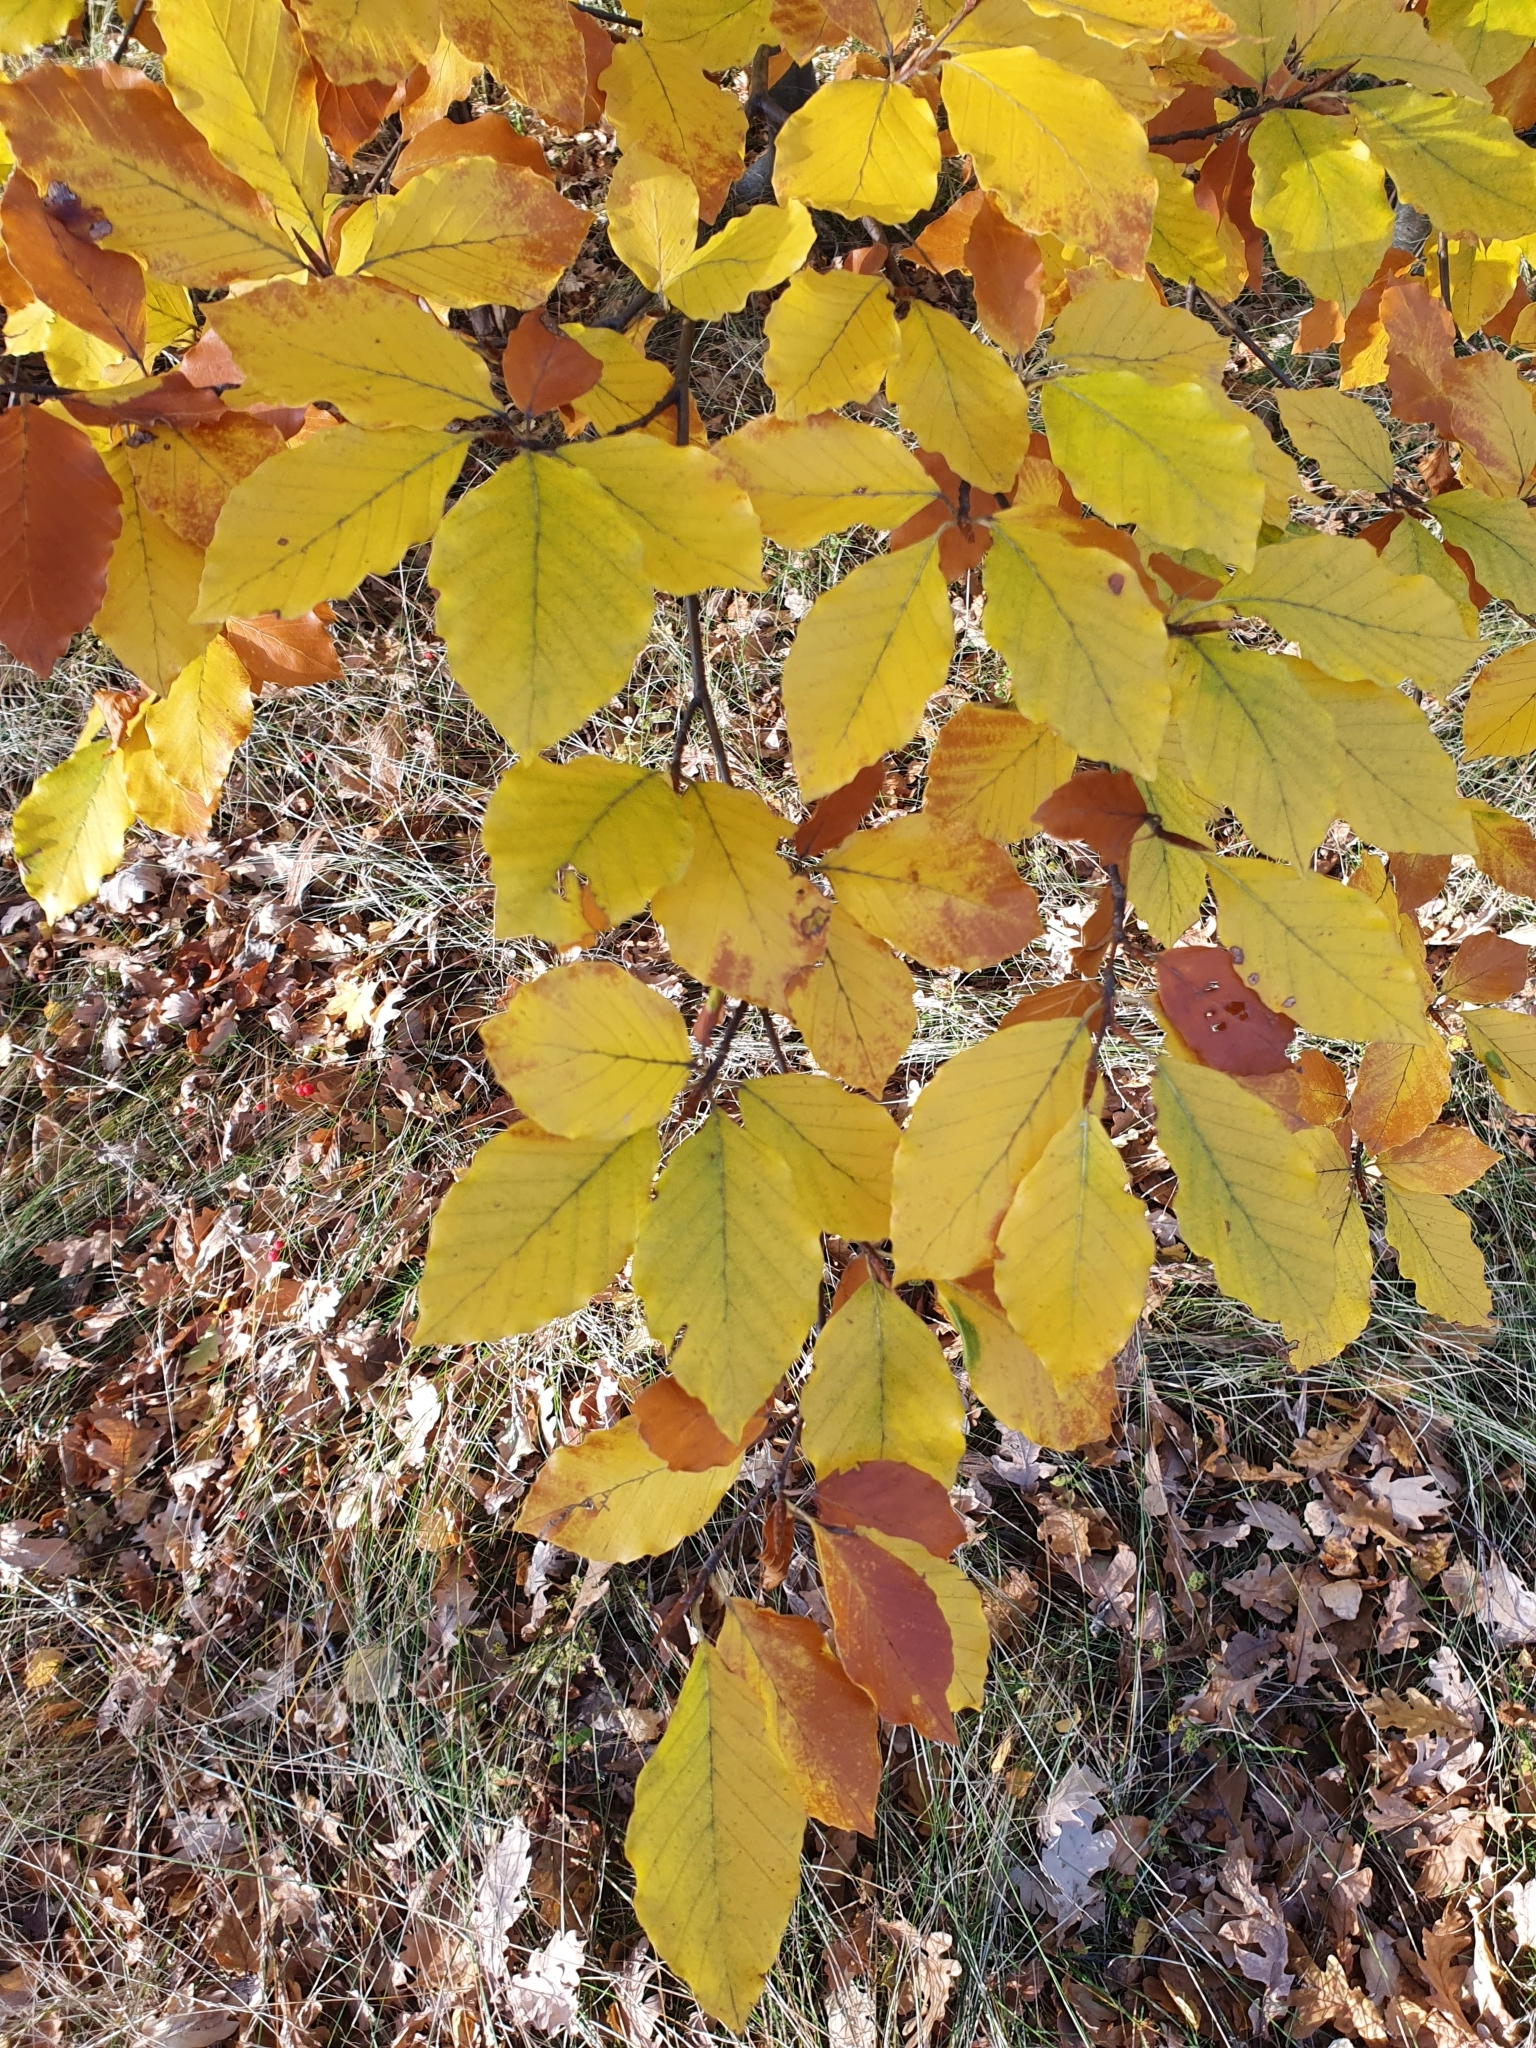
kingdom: Plantae
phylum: Tracheophyta
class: Magnoliopsida
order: Fagales
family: Fagaceae
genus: Fagus
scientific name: Fagus sylvatica
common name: Beech
